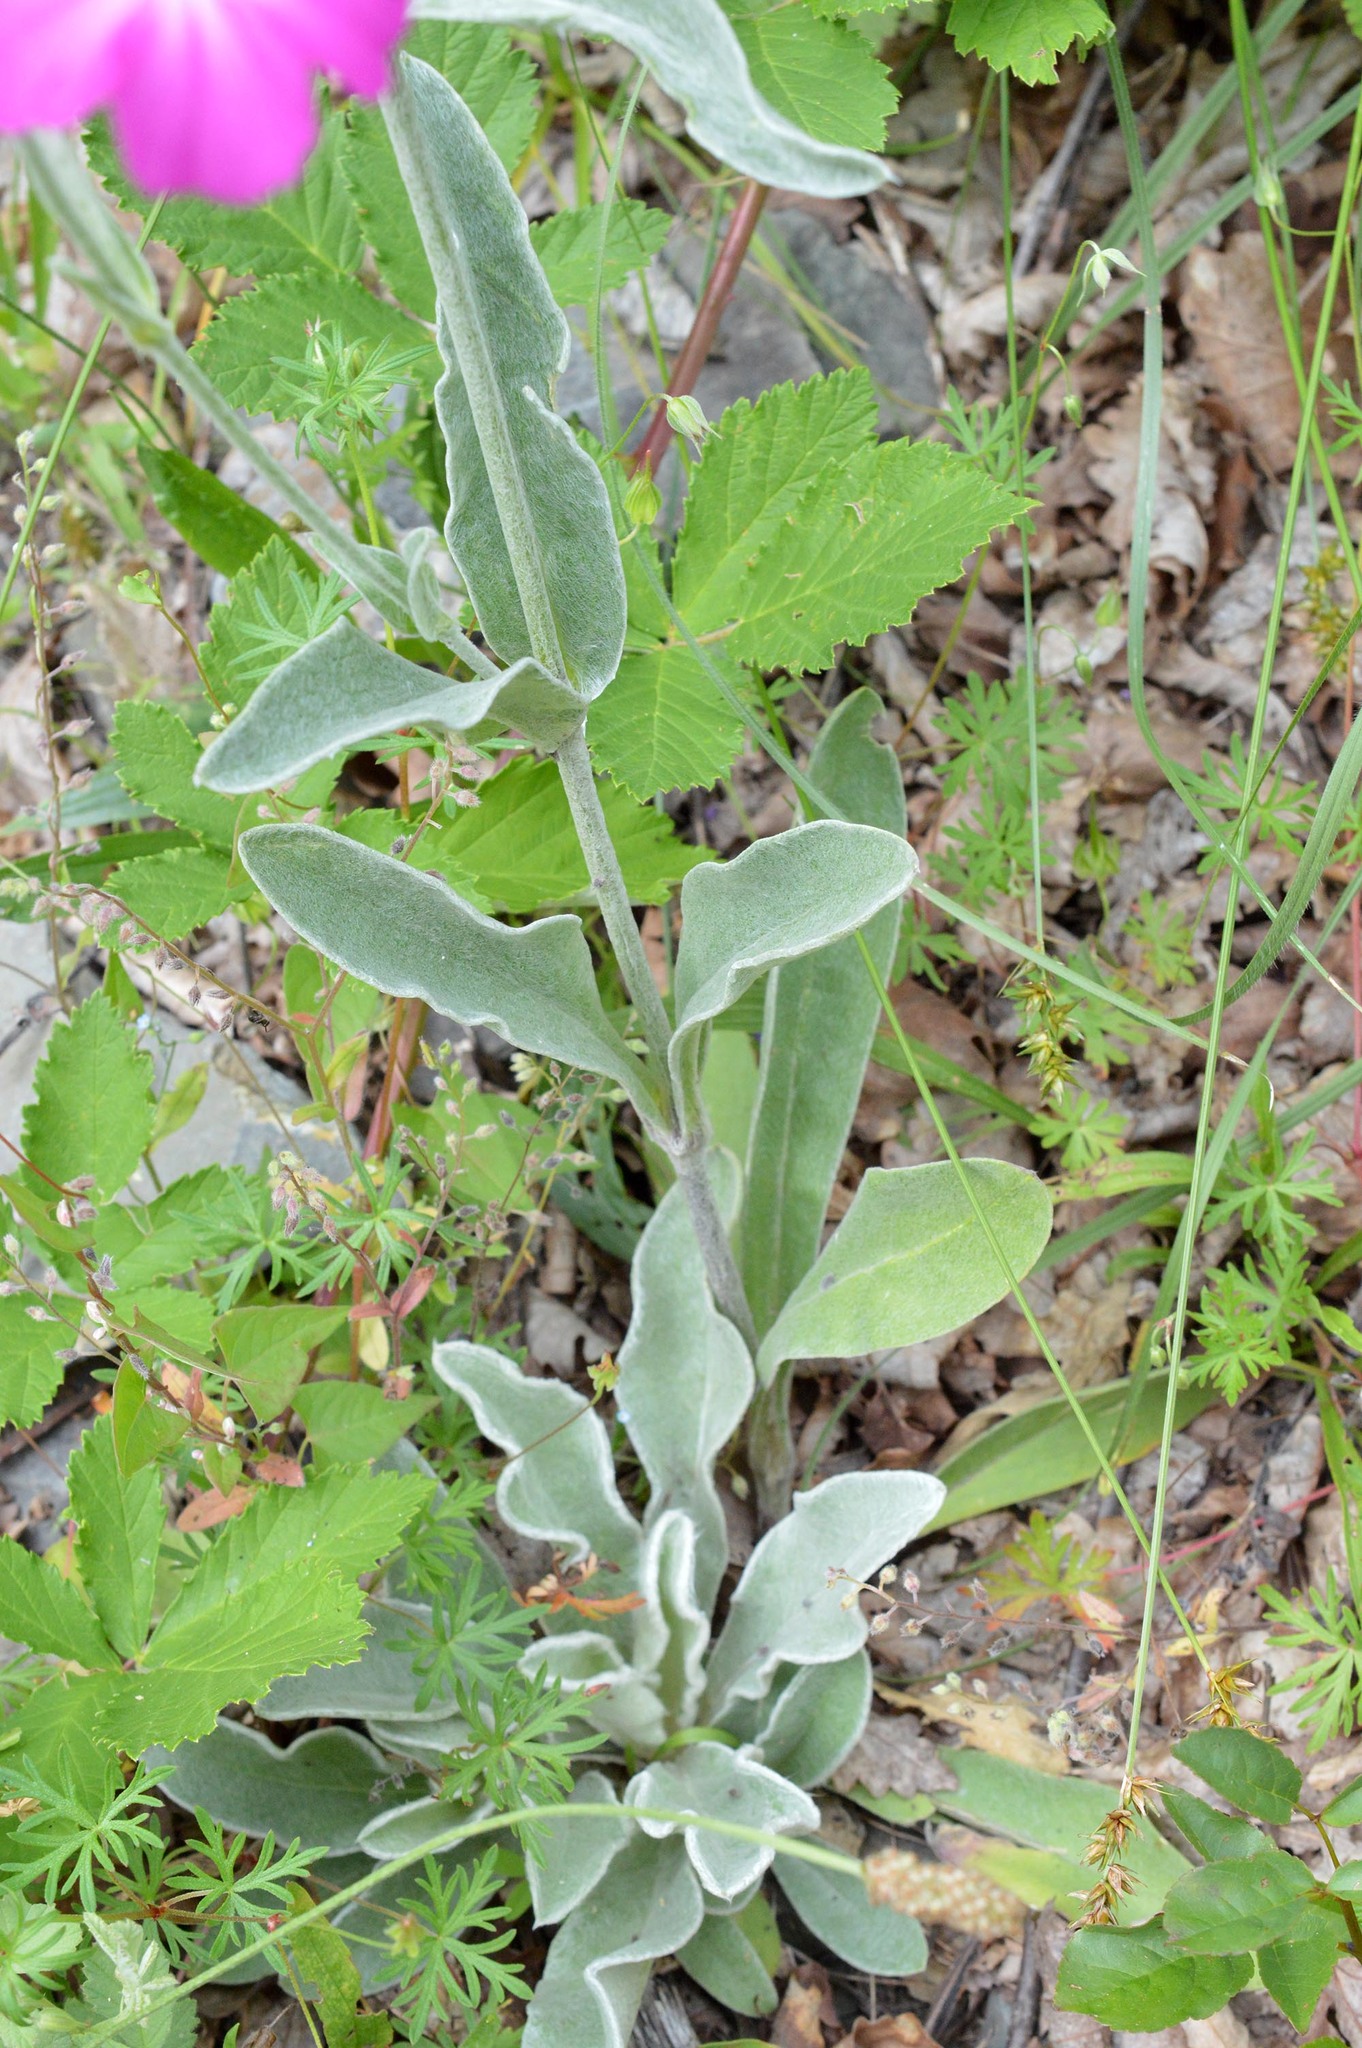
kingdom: Plantae
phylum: Tracheophyta
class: Magnoliopsida
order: Caryophyllales
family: Caryophyllaceae
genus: Silene
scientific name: Silene coronaria
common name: Rose campion
